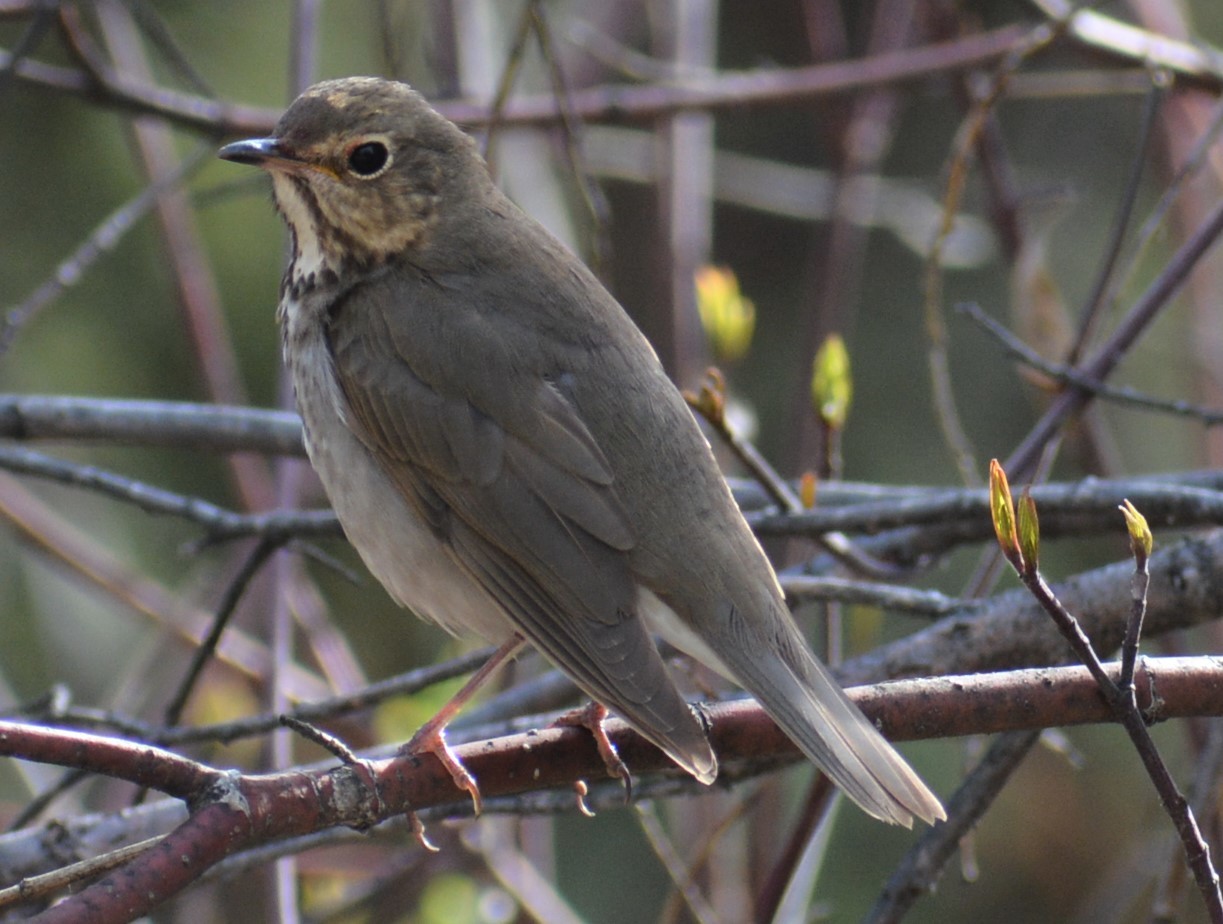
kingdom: Animalia
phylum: Chordata
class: Aves
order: Passeriformes
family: Turdidae
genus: Catharus
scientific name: Catharus ustulatus
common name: Swainson's thrush
